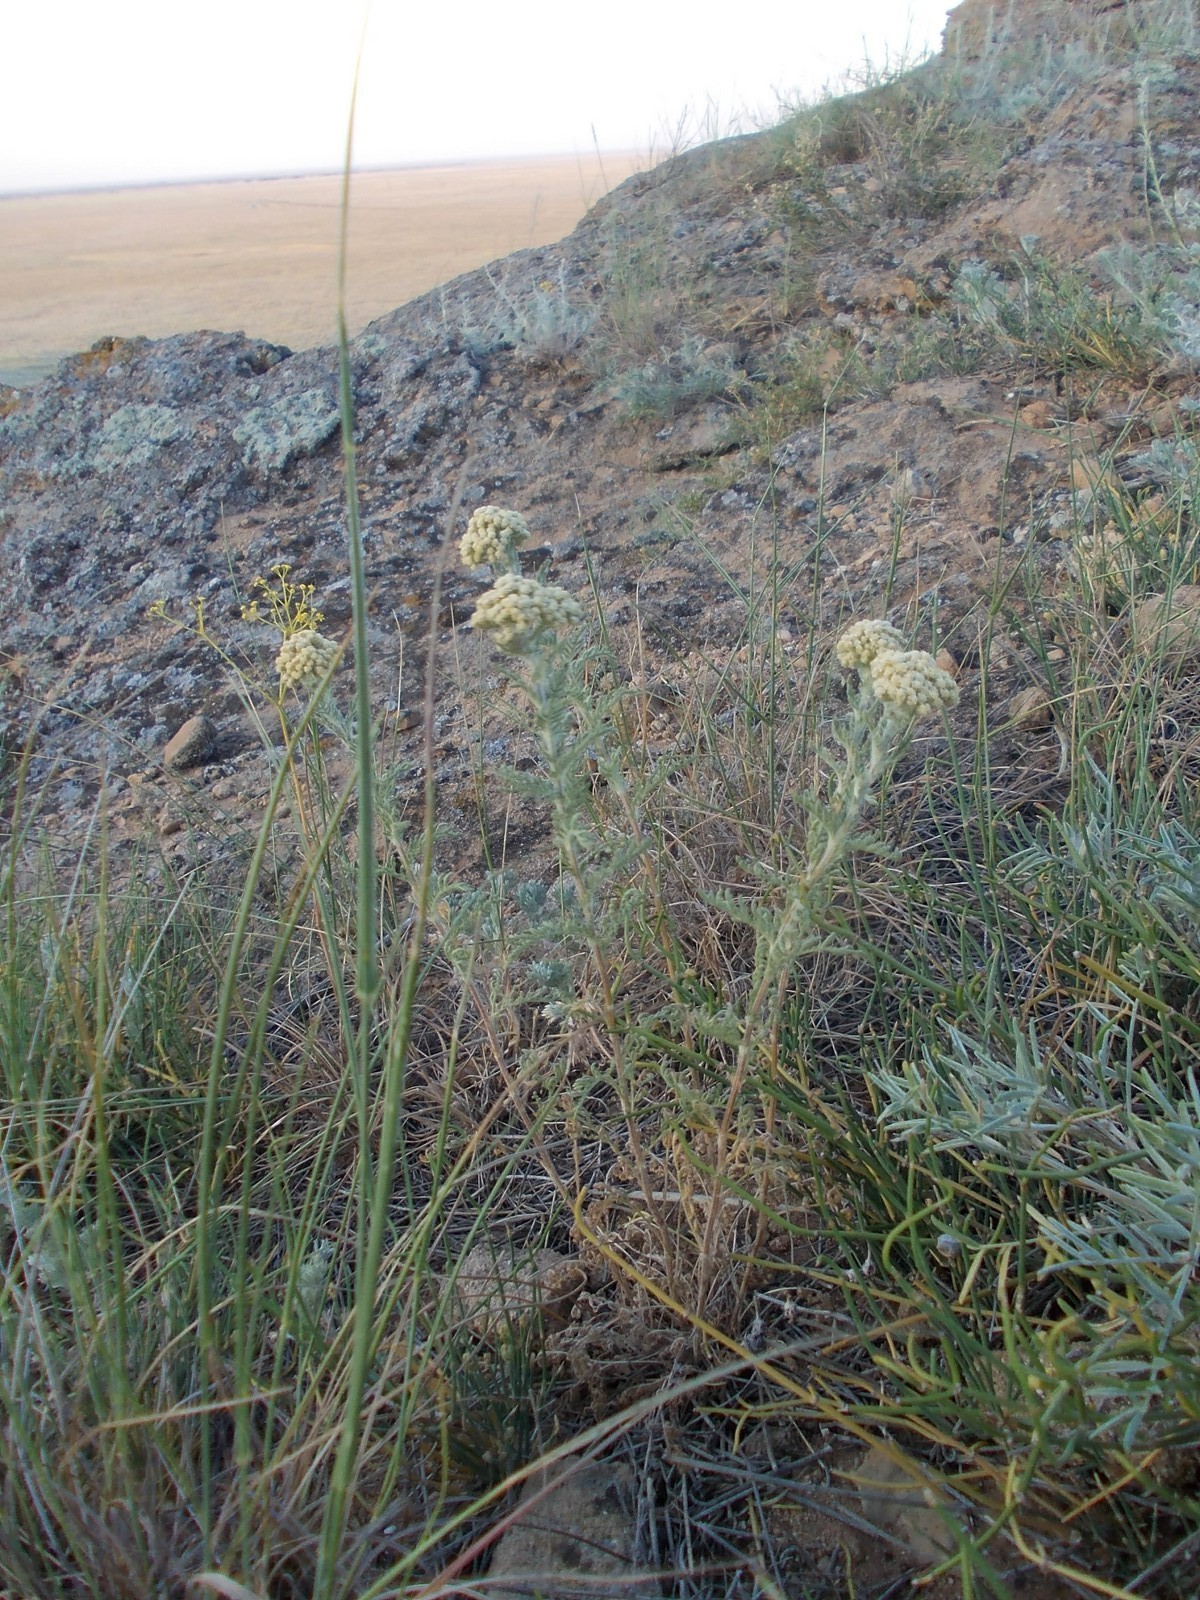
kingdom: Plantae
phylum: Tracheophyta
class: Magnoliopsida
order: Asterales
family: Asteraceae
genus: Achillea
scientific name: Achillea nobilis
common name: Noble yarrow
